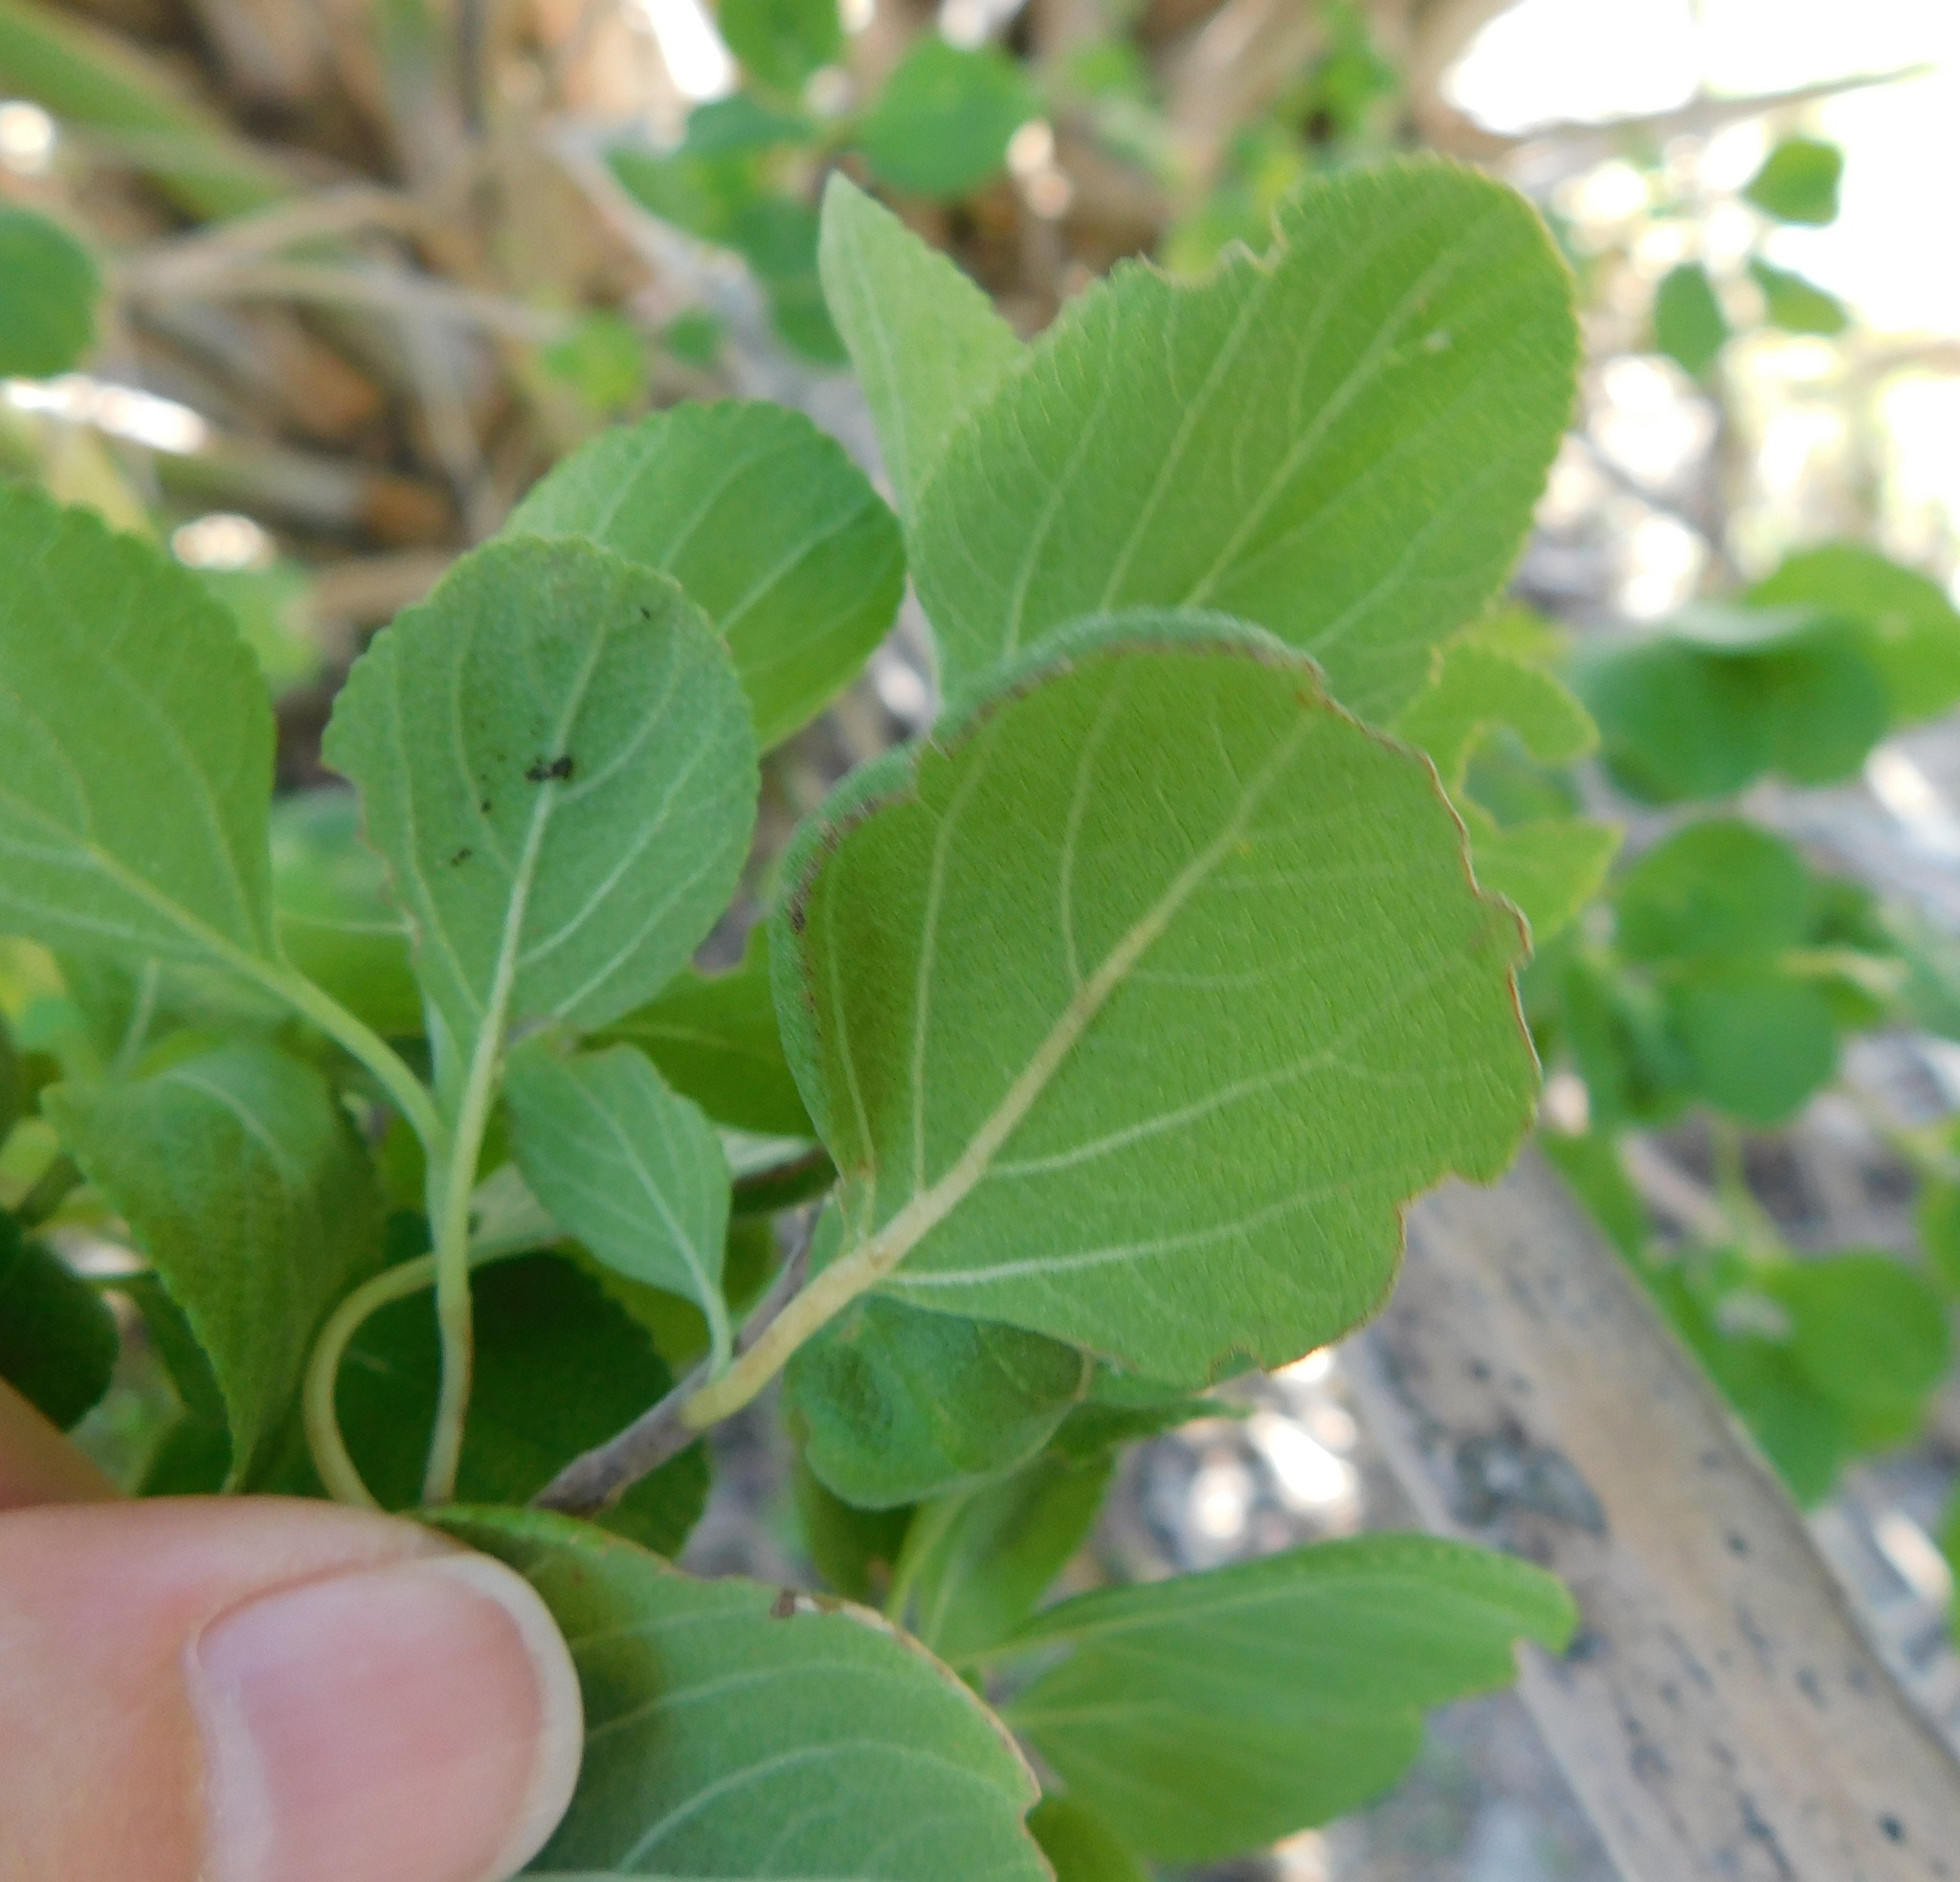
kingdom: Plantae
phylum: Tracheophyta
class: Magnoliopsida
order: Lamiales
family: Verbenaceae
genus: Lantana
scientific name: Lantana involucrata
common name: Black sage
